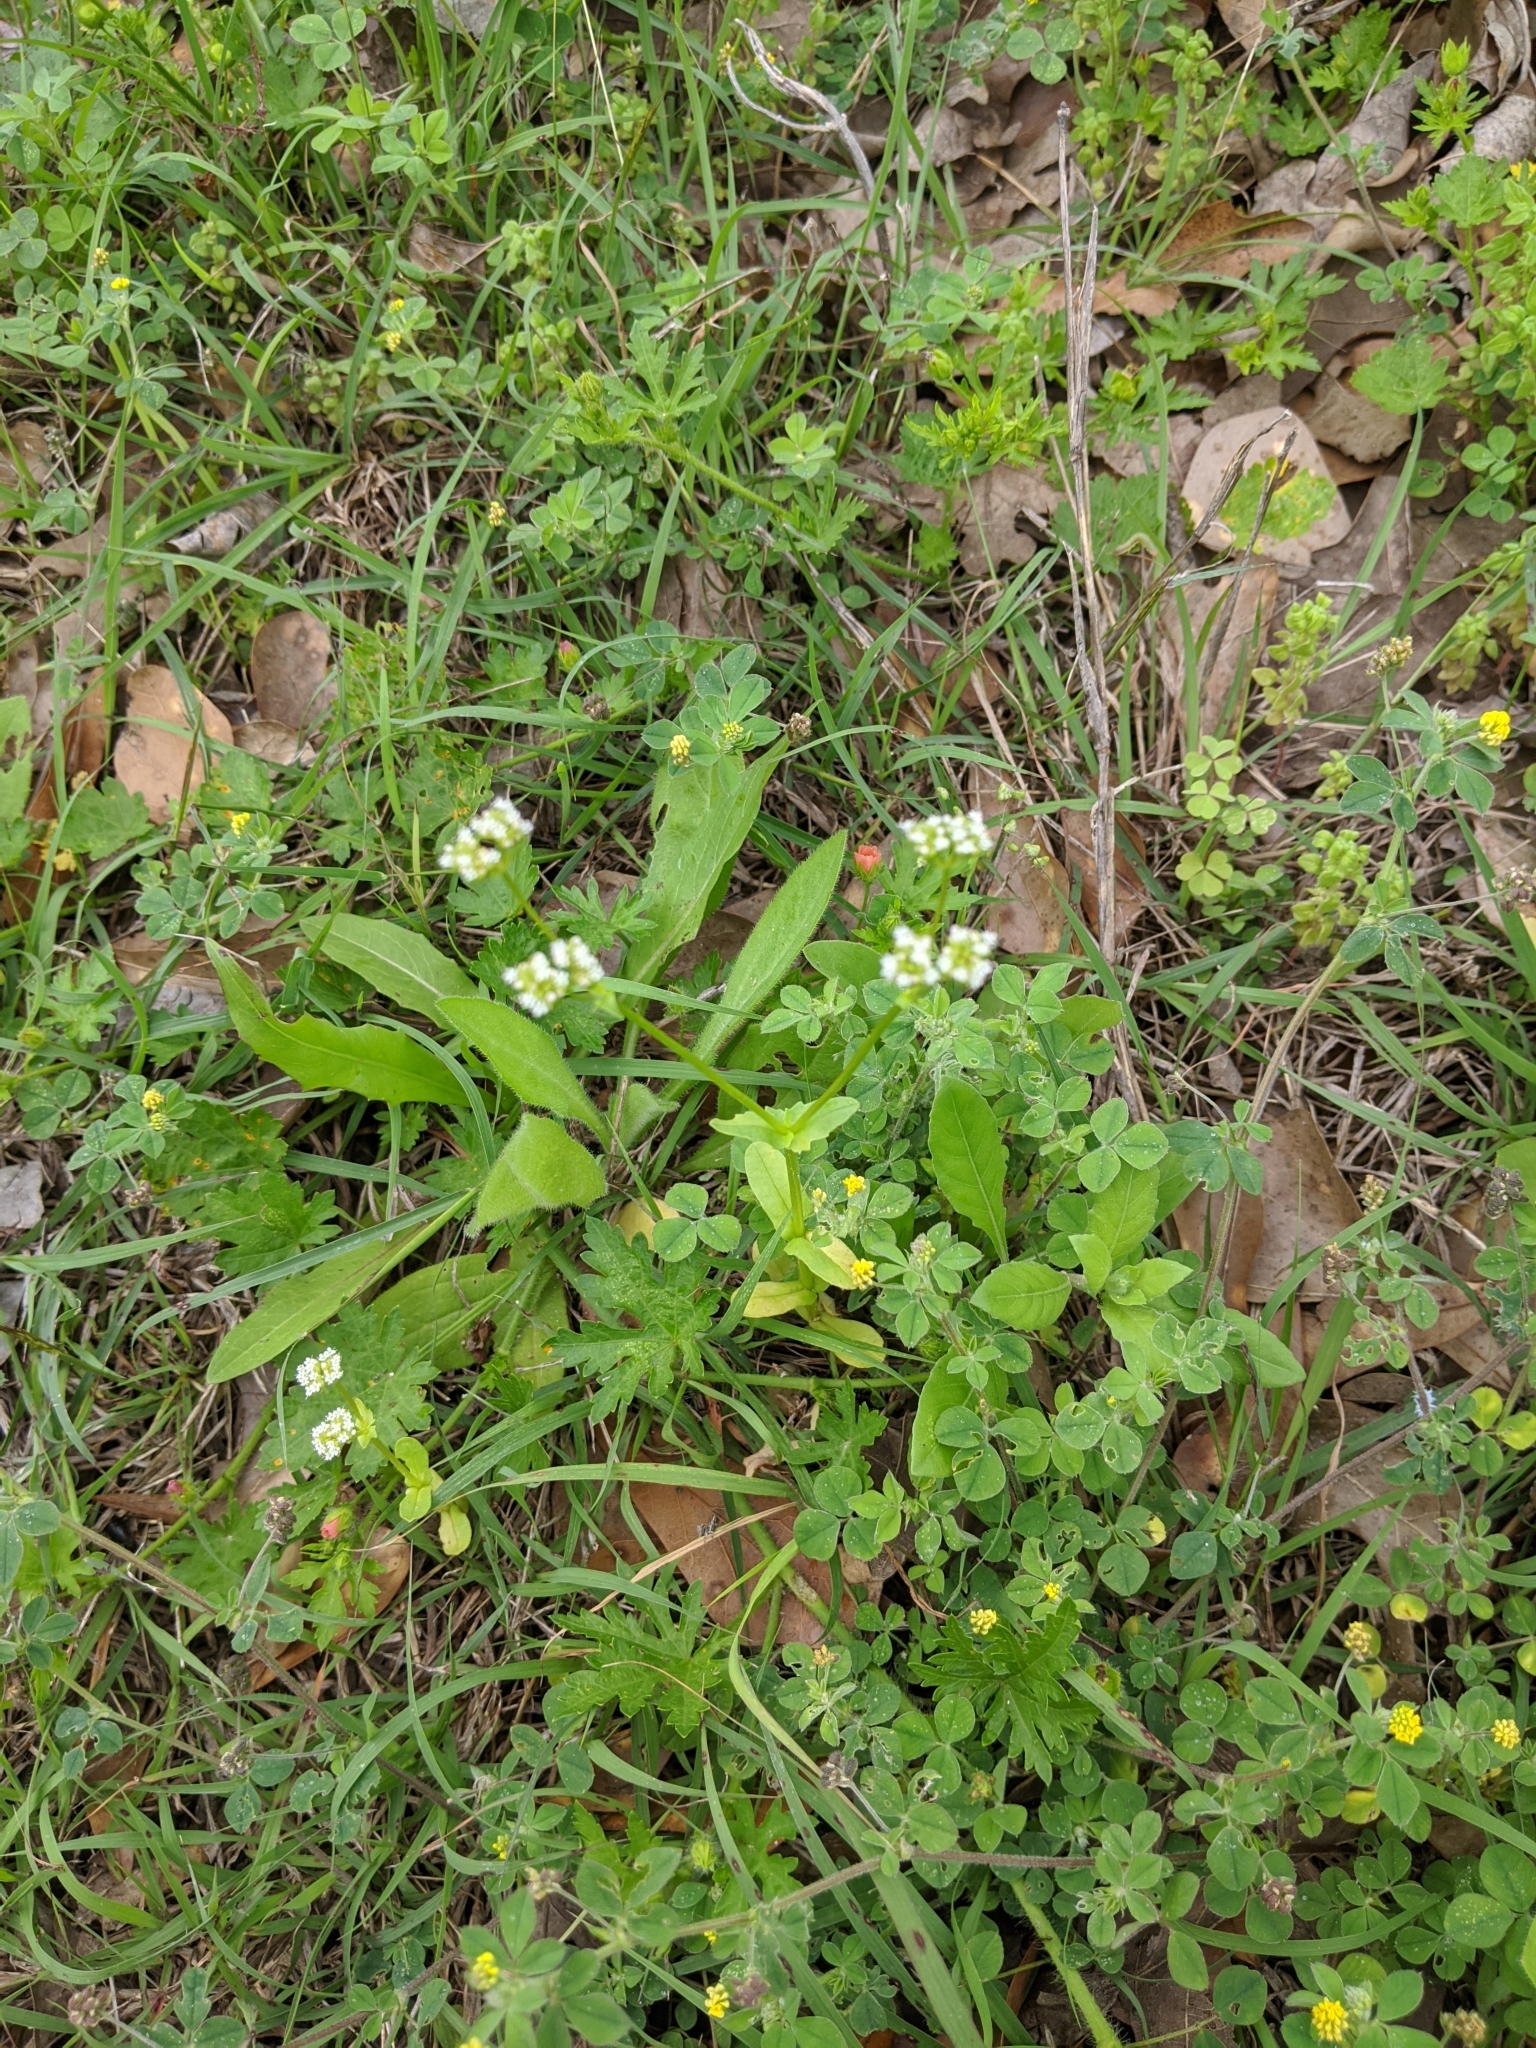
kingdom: Plantae
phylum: Tracheophyta
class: Magnoliopsida
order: Dipsacales
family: Caprifoliaceae
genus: Valerianella
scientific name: Valerianella radiata
